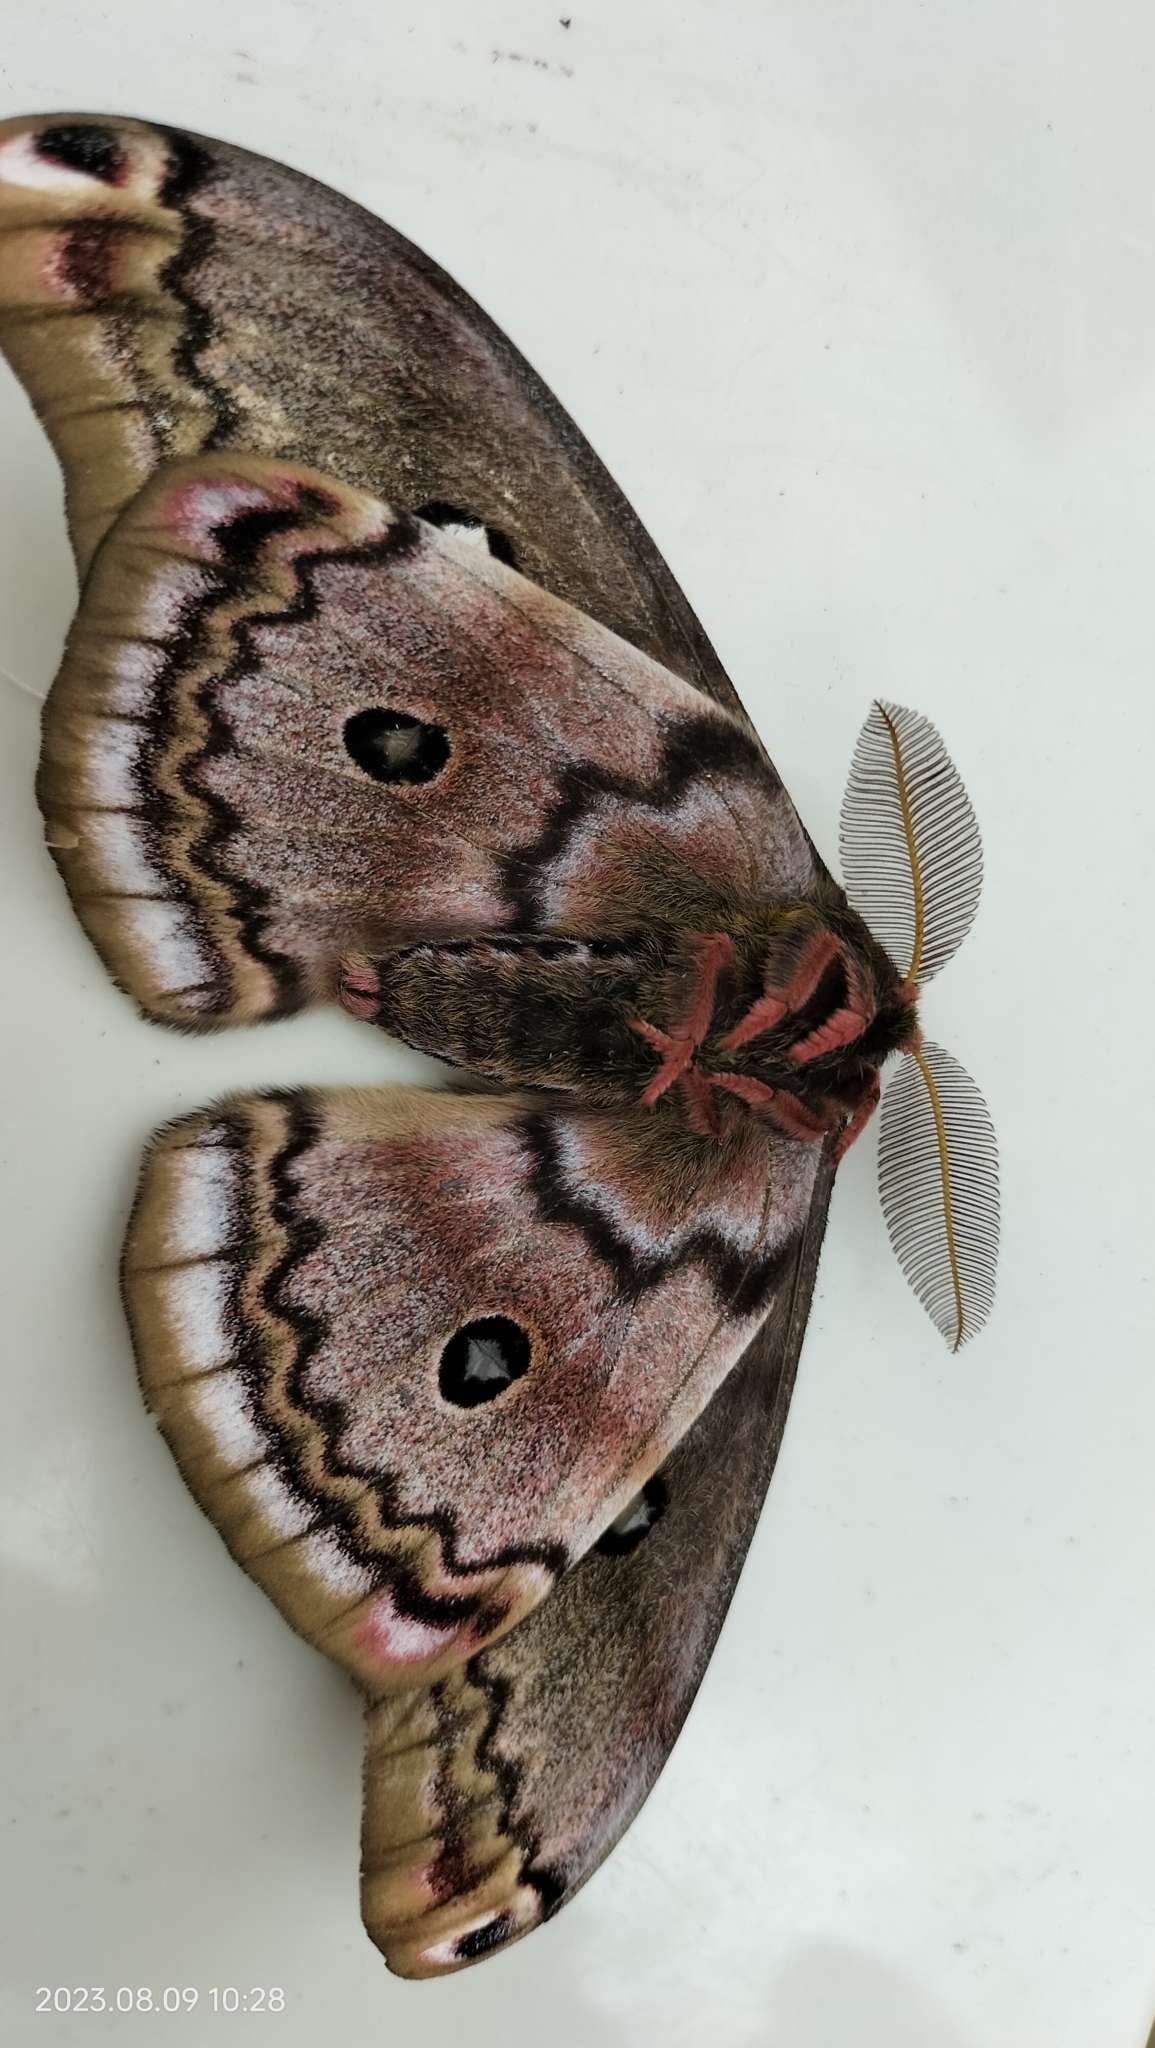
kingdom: Animalia
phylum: Arthropoda
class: Insecta
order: Lepidoptera
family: Saturniidae
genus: Copaxa
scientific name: Copaxa medea
